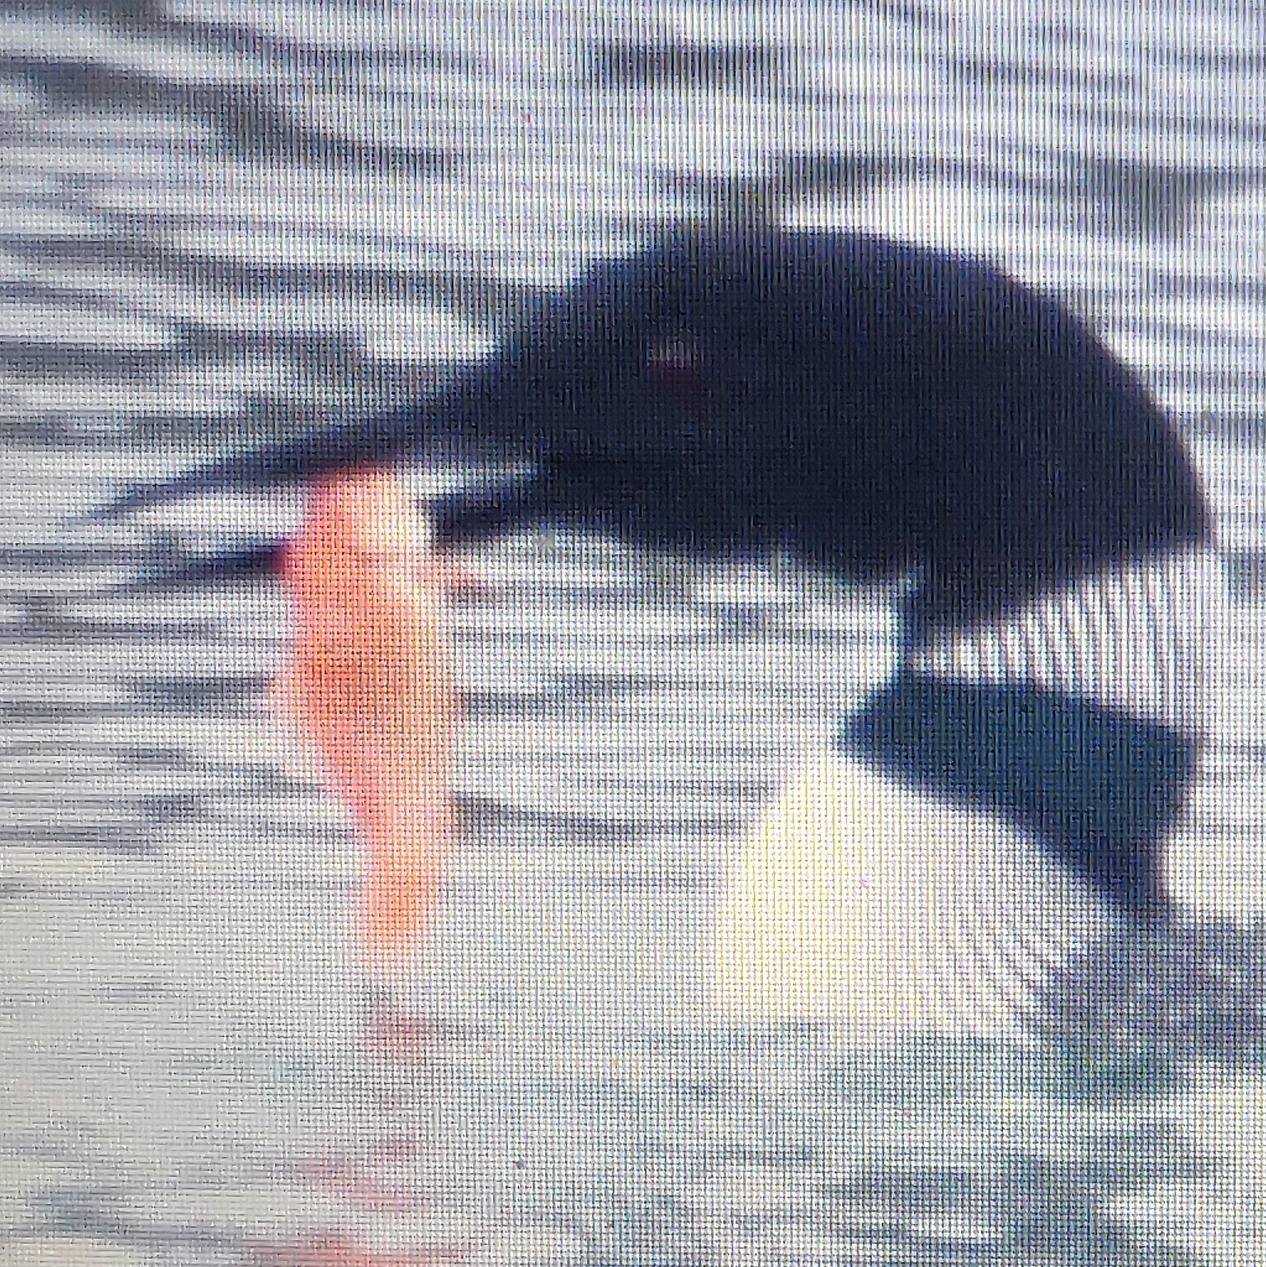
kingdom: Animalia
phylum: Chordata
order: Cypriniformes
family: Cyprinidae
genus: Carassius
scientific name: Carassius auratus
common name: Goldfish
